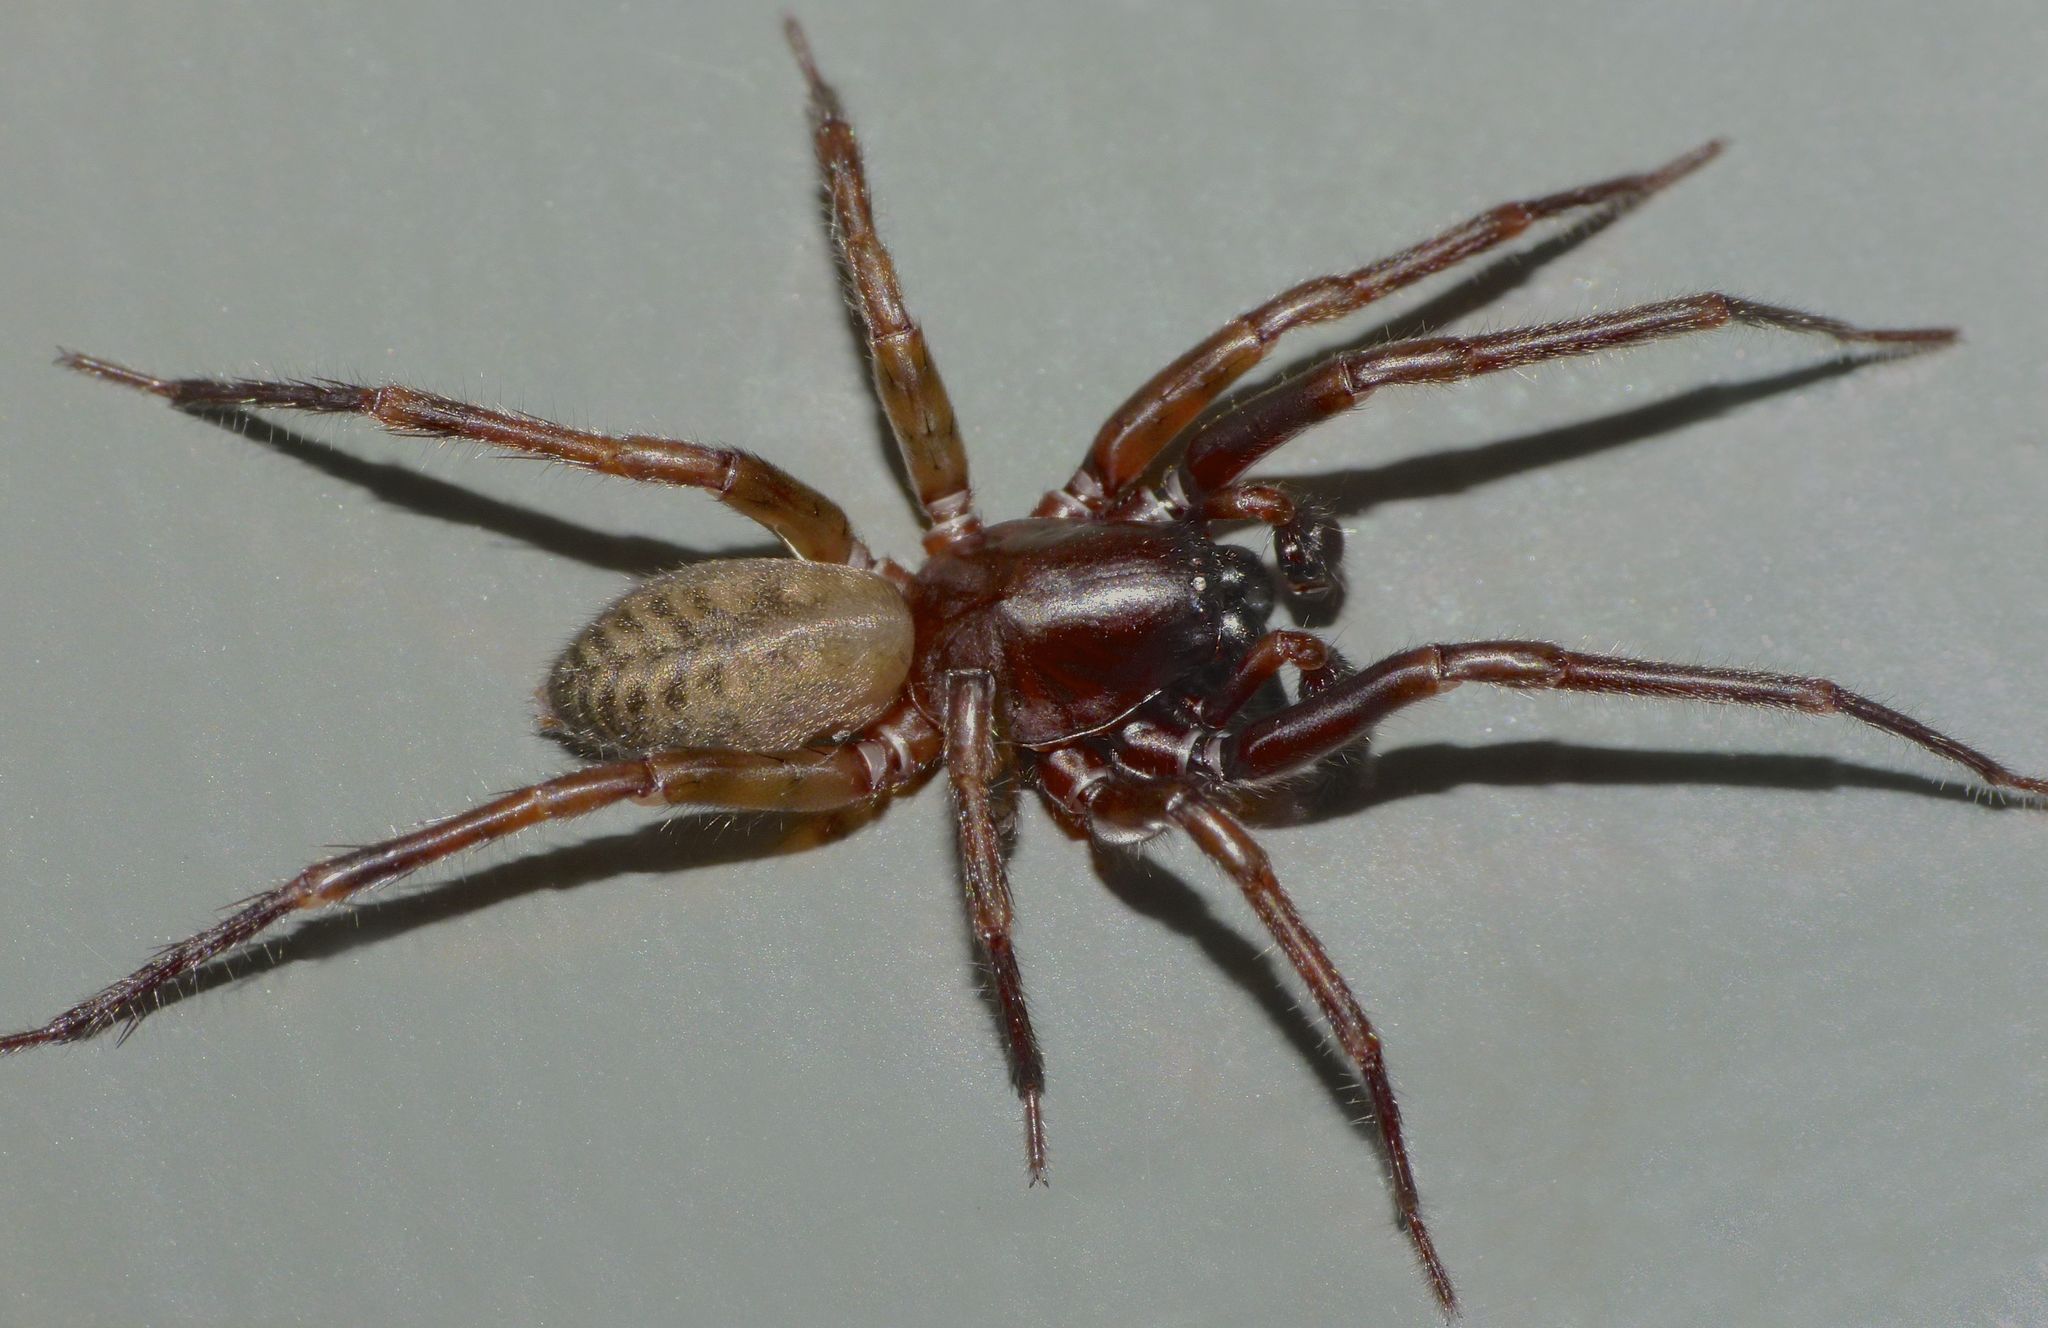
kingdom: Animalia
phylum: Arthropoda
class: Arachnida
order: Araneae
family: Desidae
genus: Mamoea
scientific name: Mamoea rakiura
